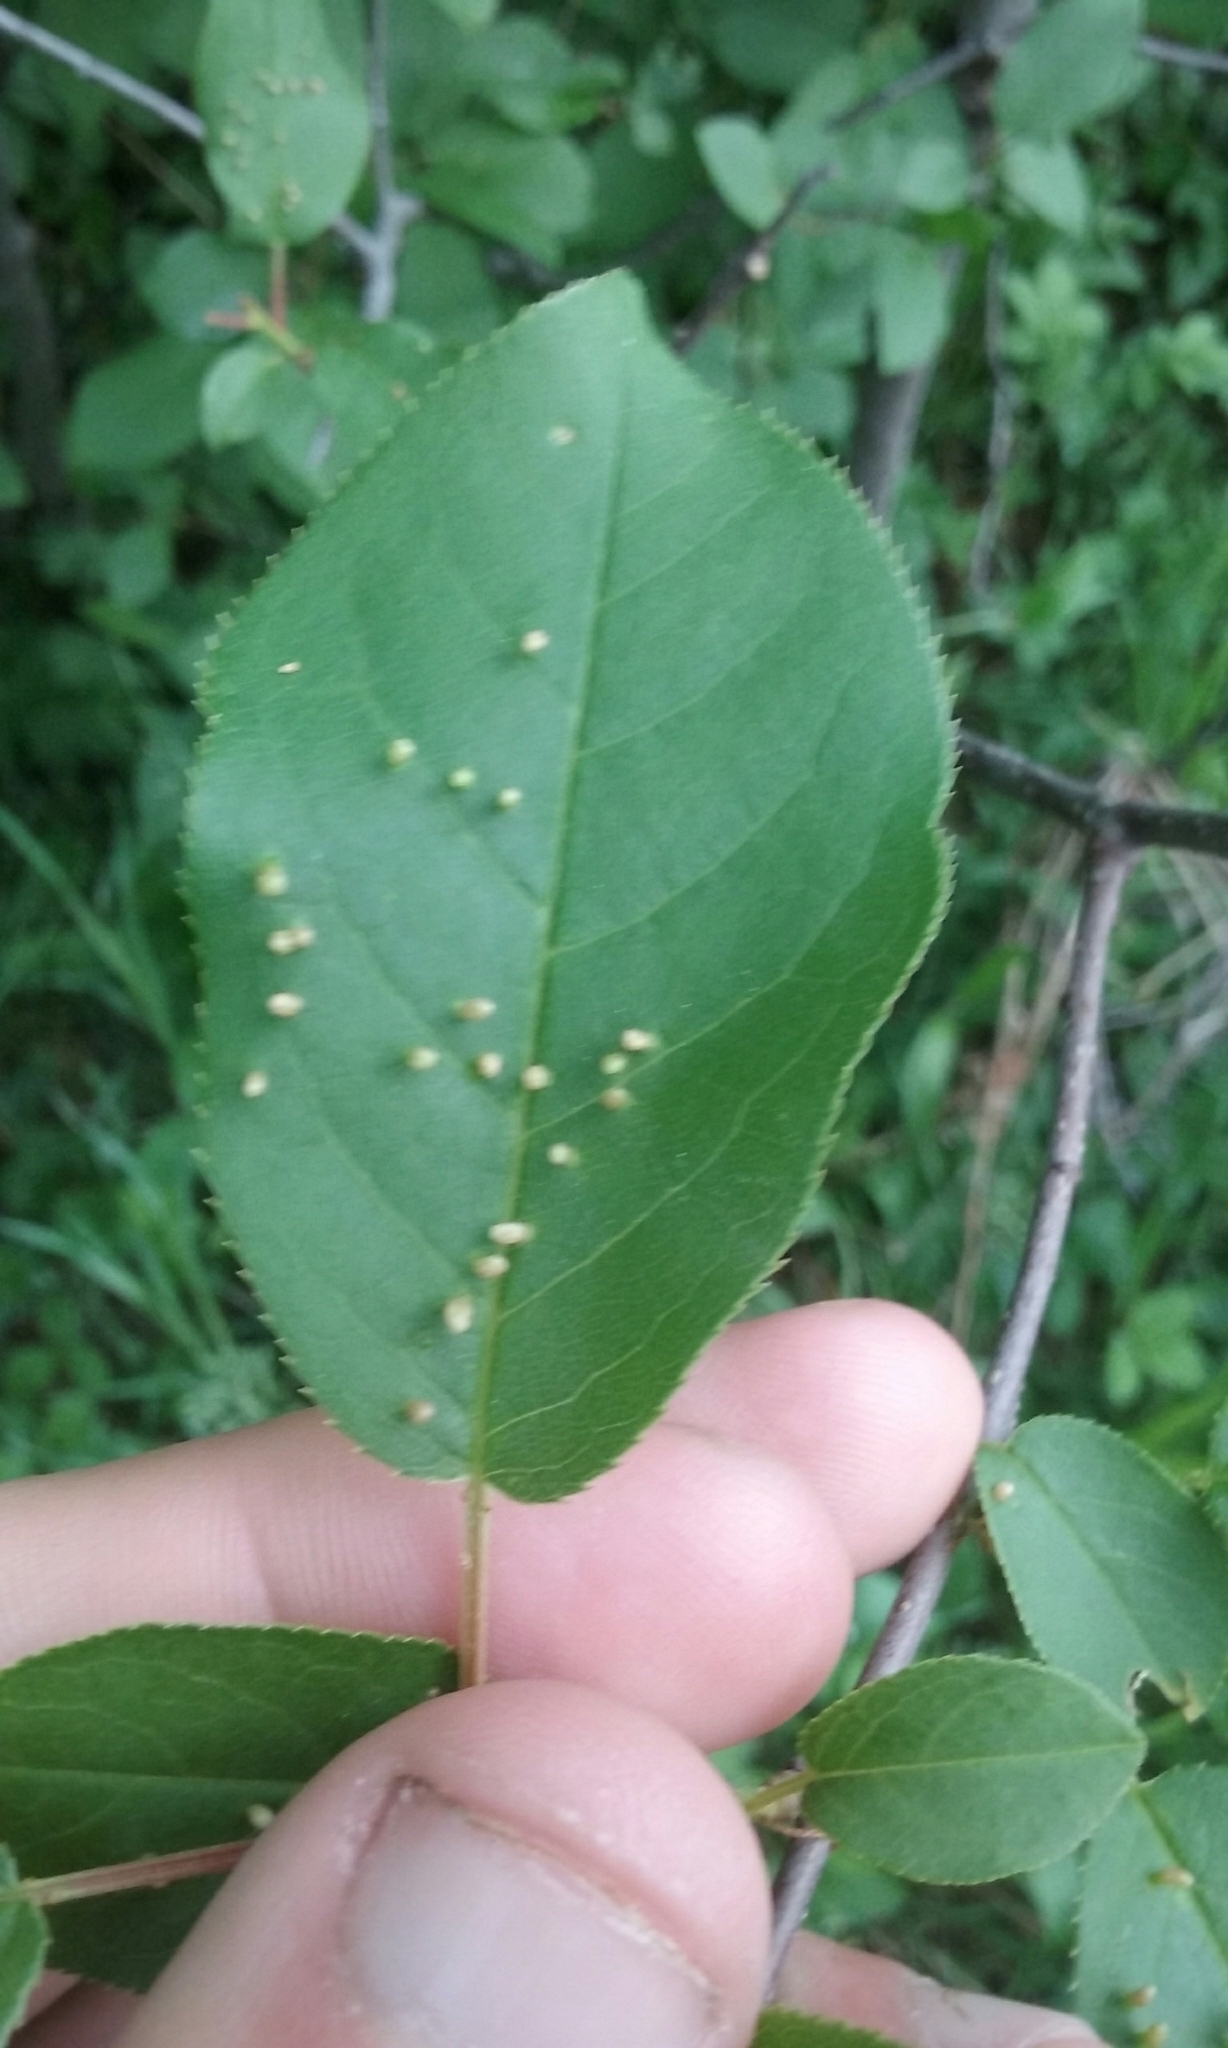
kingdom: Plantae
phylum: Tracheophyta
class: Magnoliopsida
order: Rosales
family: Rosaceae
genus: Prunus
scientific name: Prunus virginiana
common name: Chokecherry
